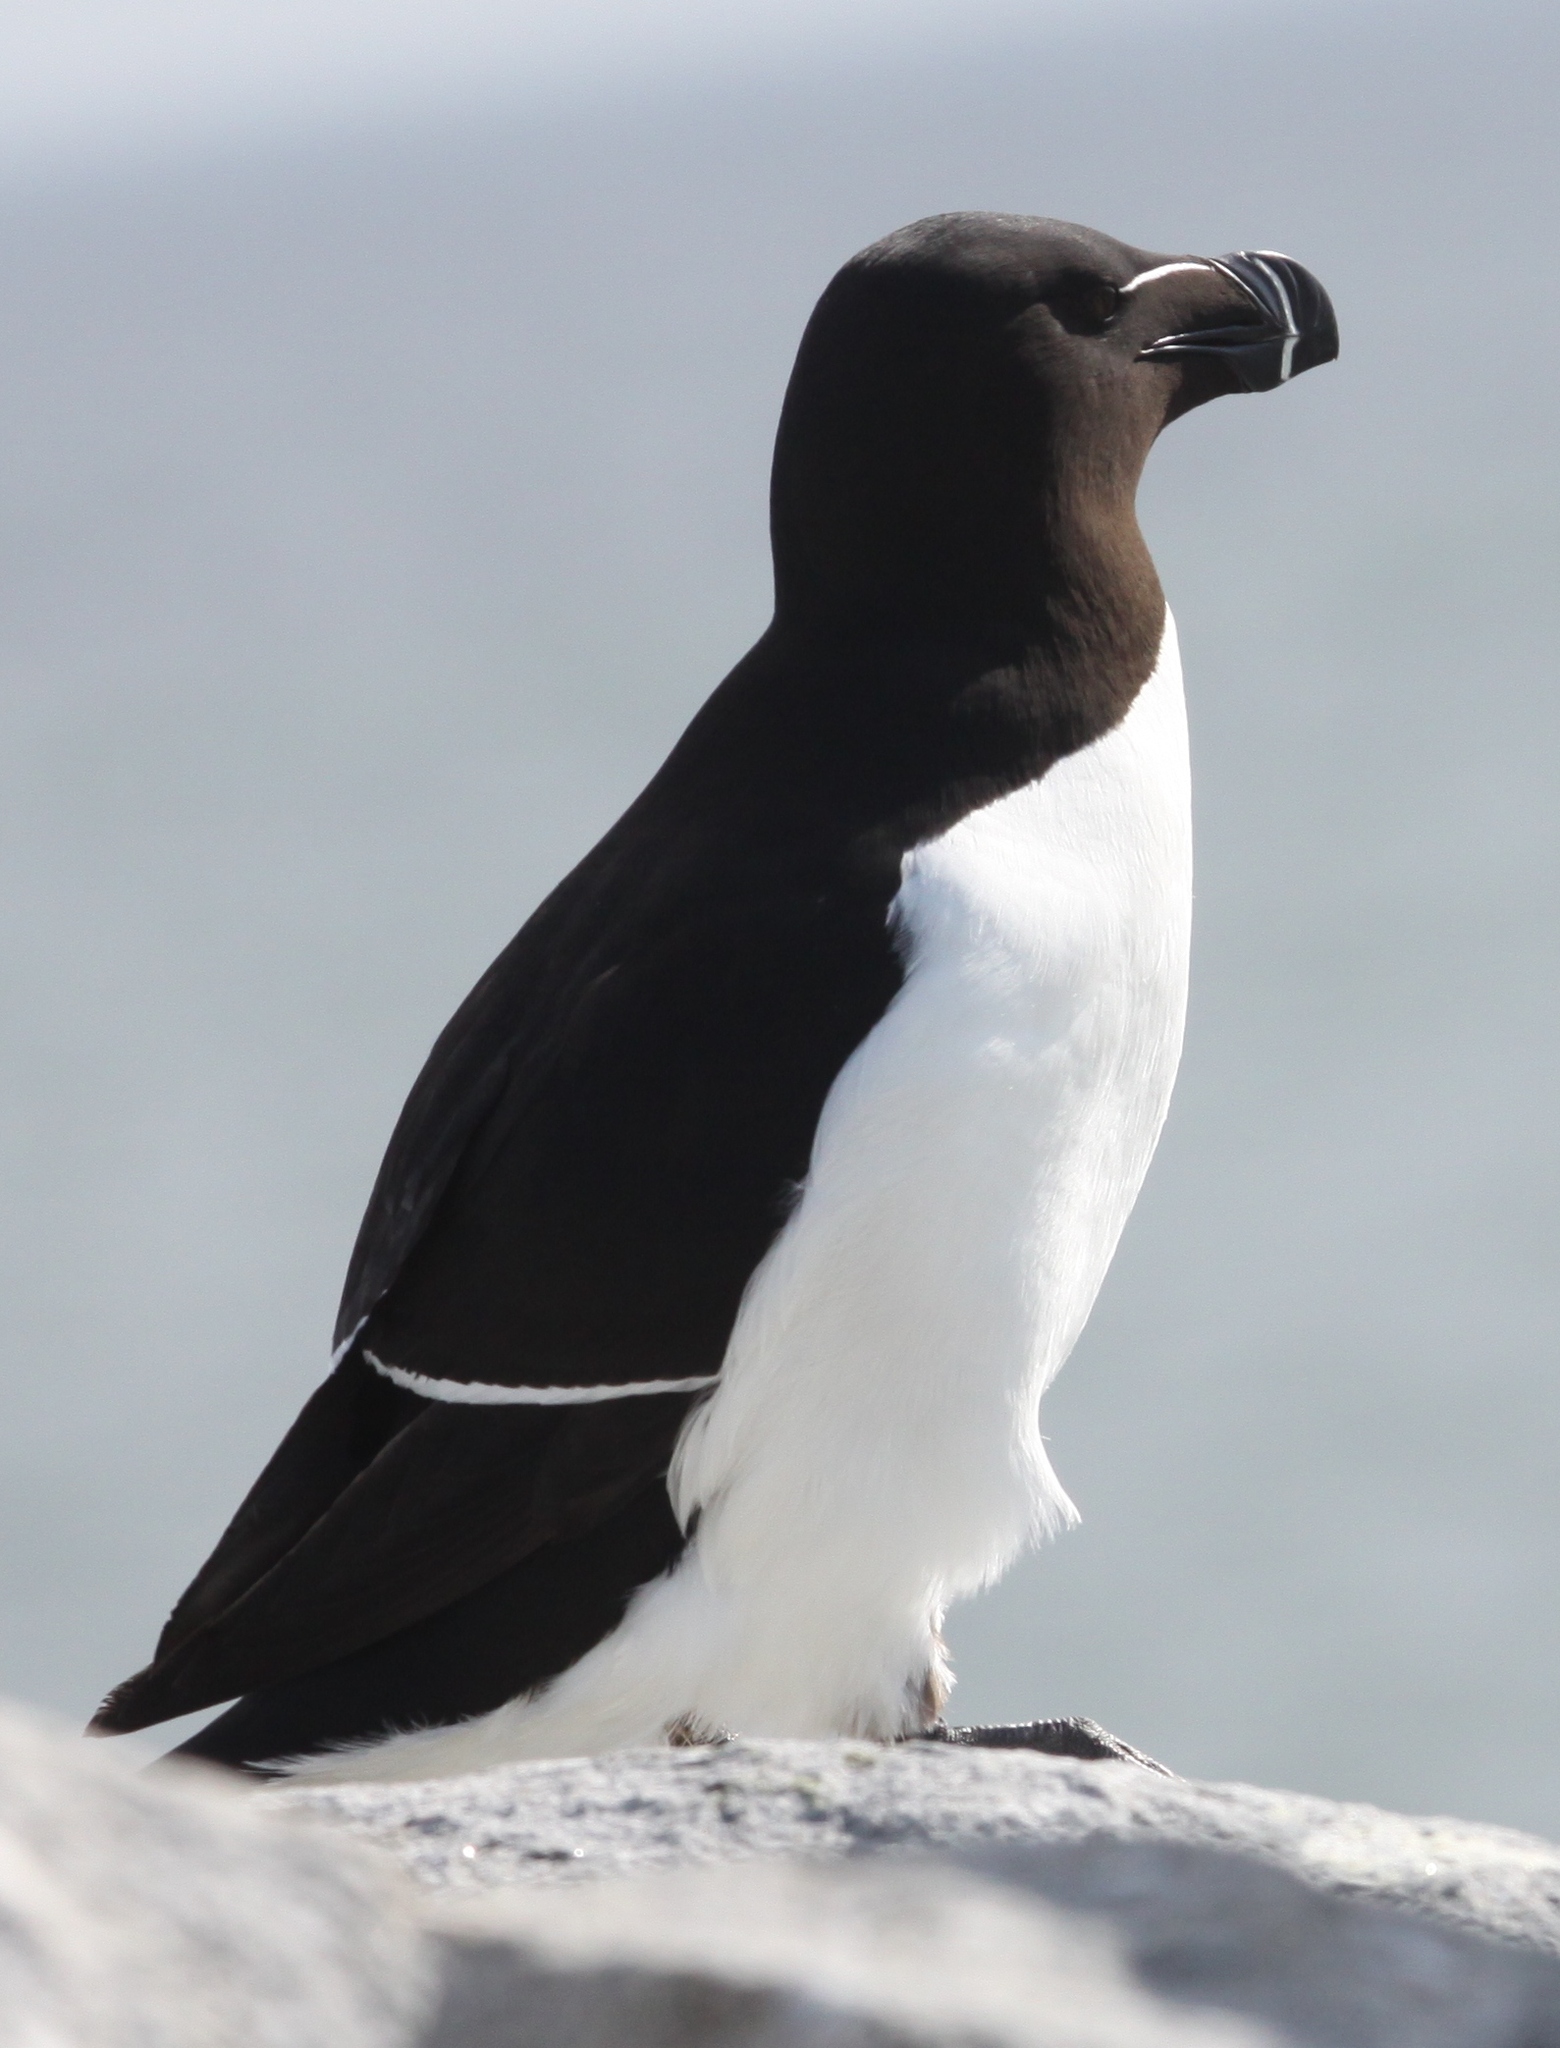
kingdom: Animalia
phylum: Chordata
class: Aves
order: Charadriiformes
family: Alcidae
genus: Alca
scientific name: Alca torda
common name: Razorbill
